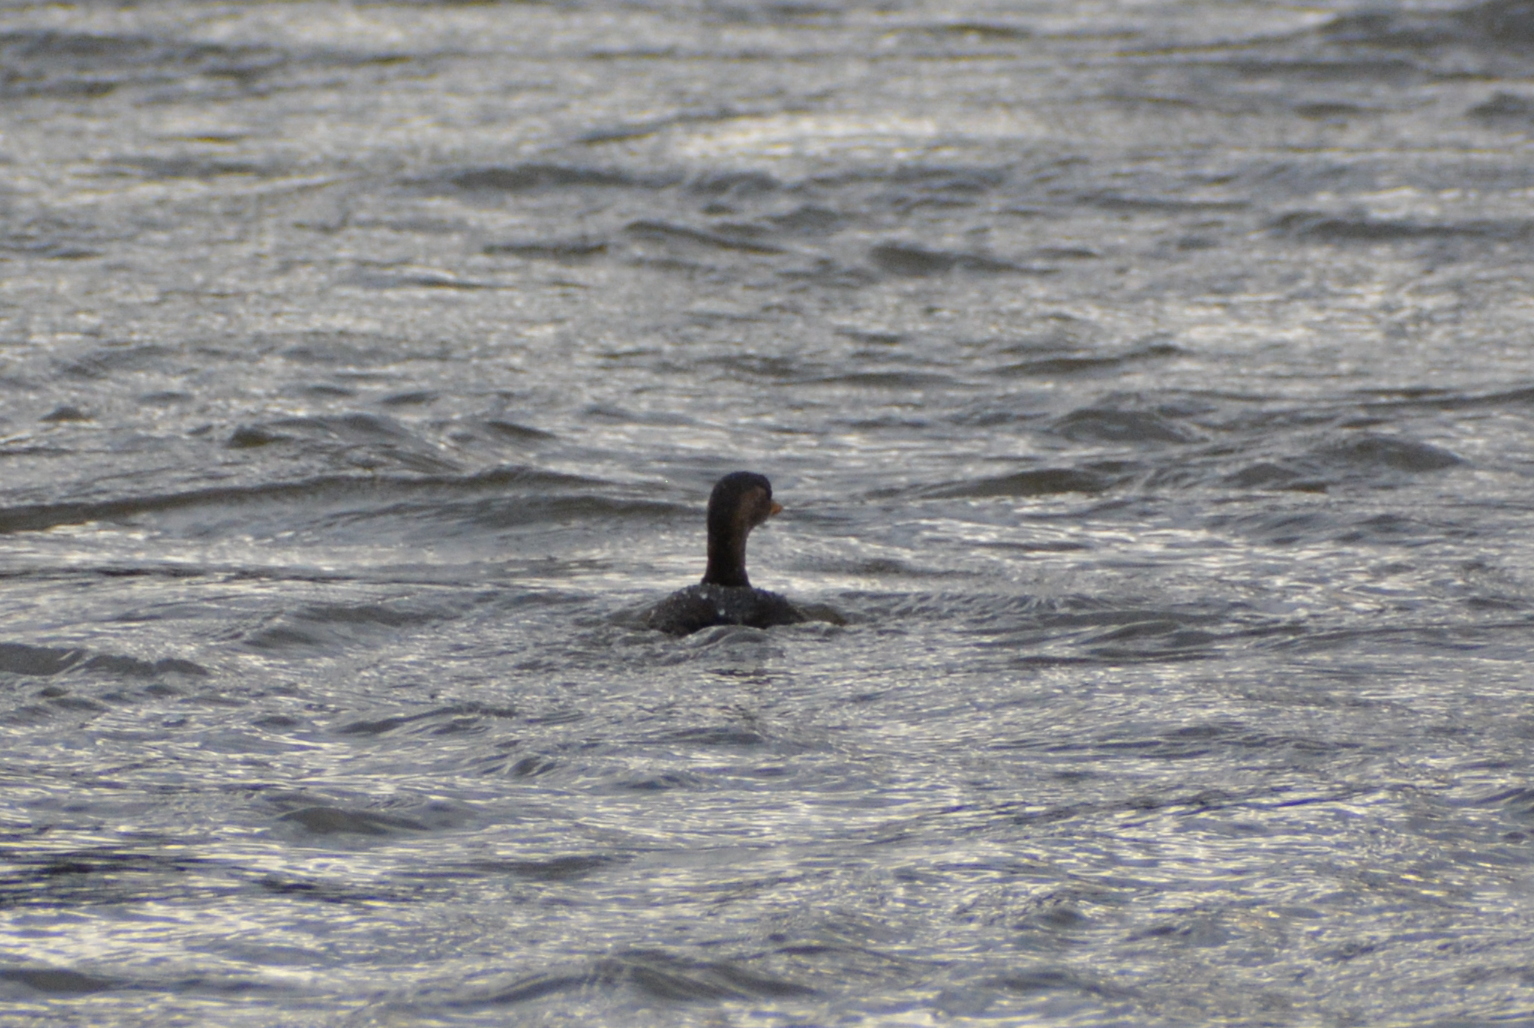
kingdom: Animalia
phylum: Chordata
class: Aves
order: Podicipediformes
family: Podicipedidae
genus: Tachybaptus
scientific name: Tachybaptus ruficollis
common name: Little grebe
